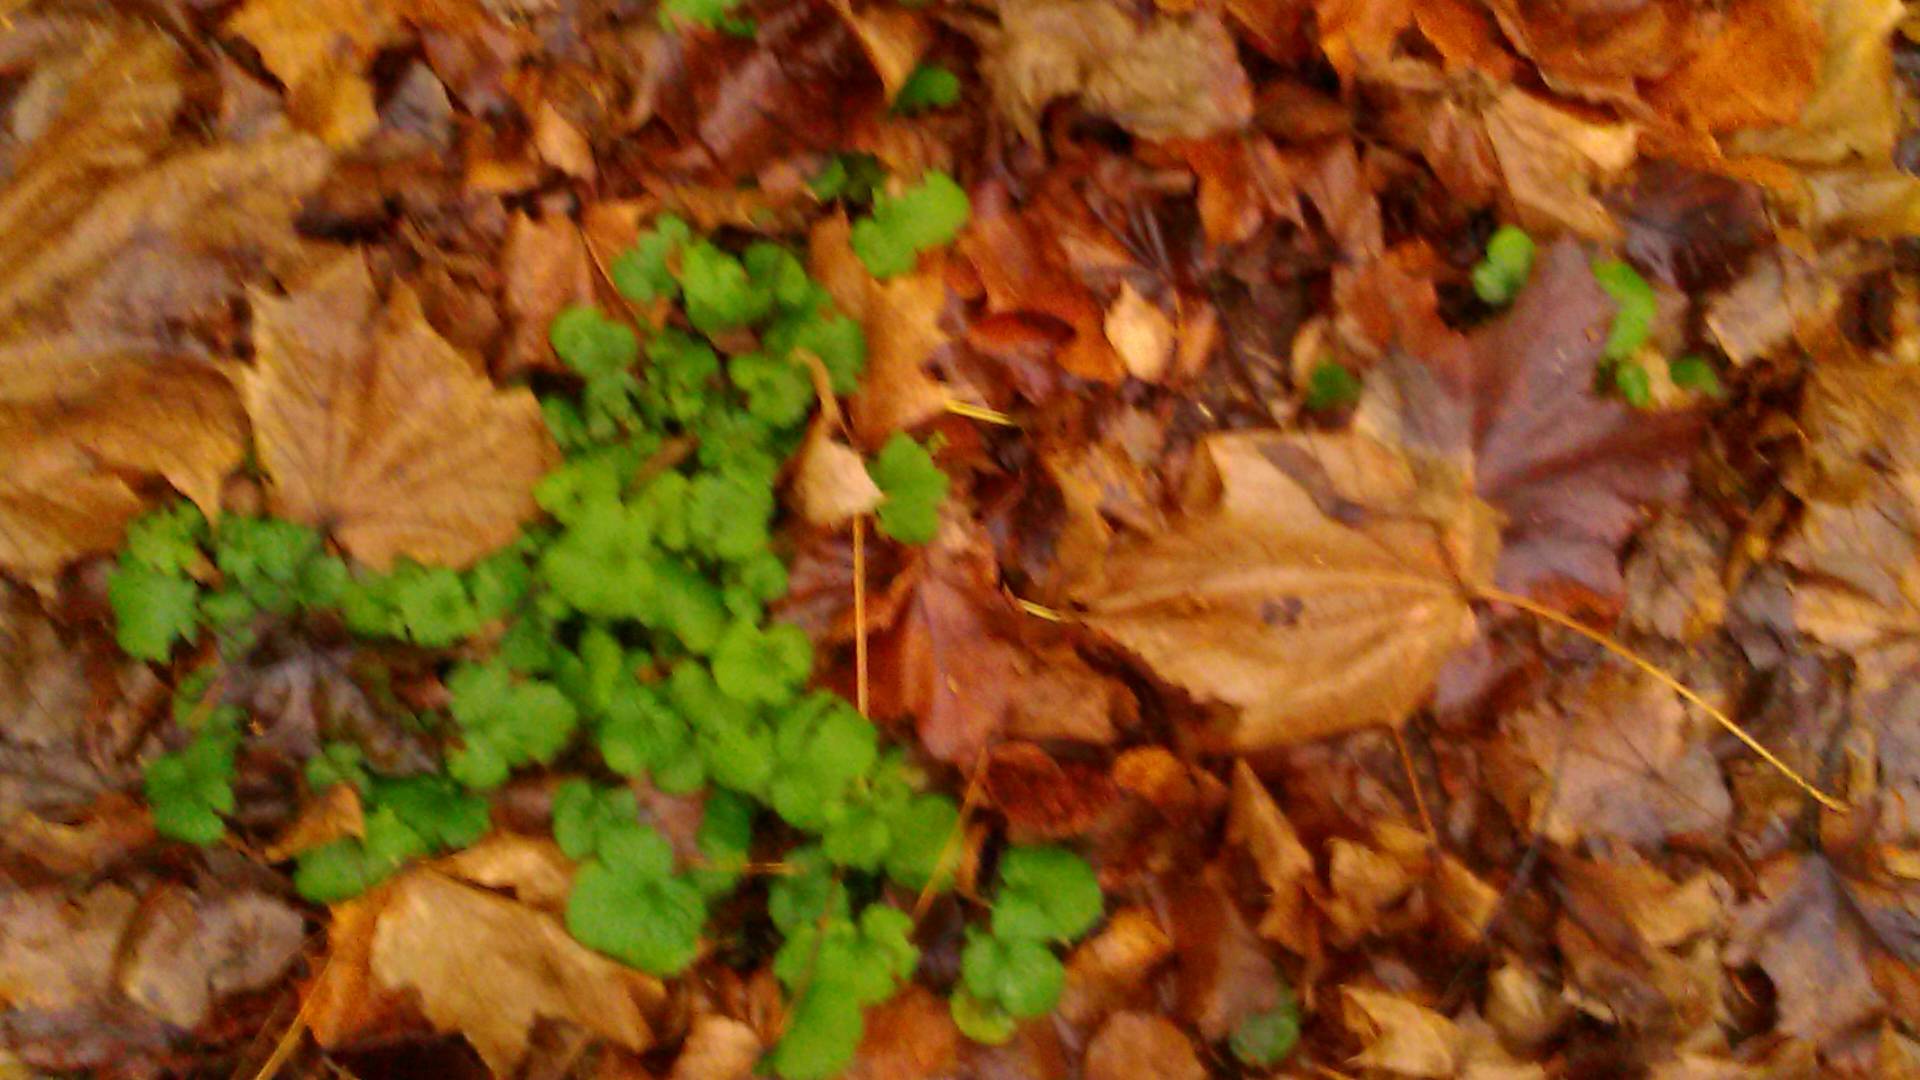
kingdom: Plantae
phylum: Tracheophyta
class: Magnoliopsida
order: Rosales
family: Rosaceae
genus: Geum
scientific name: Geum
